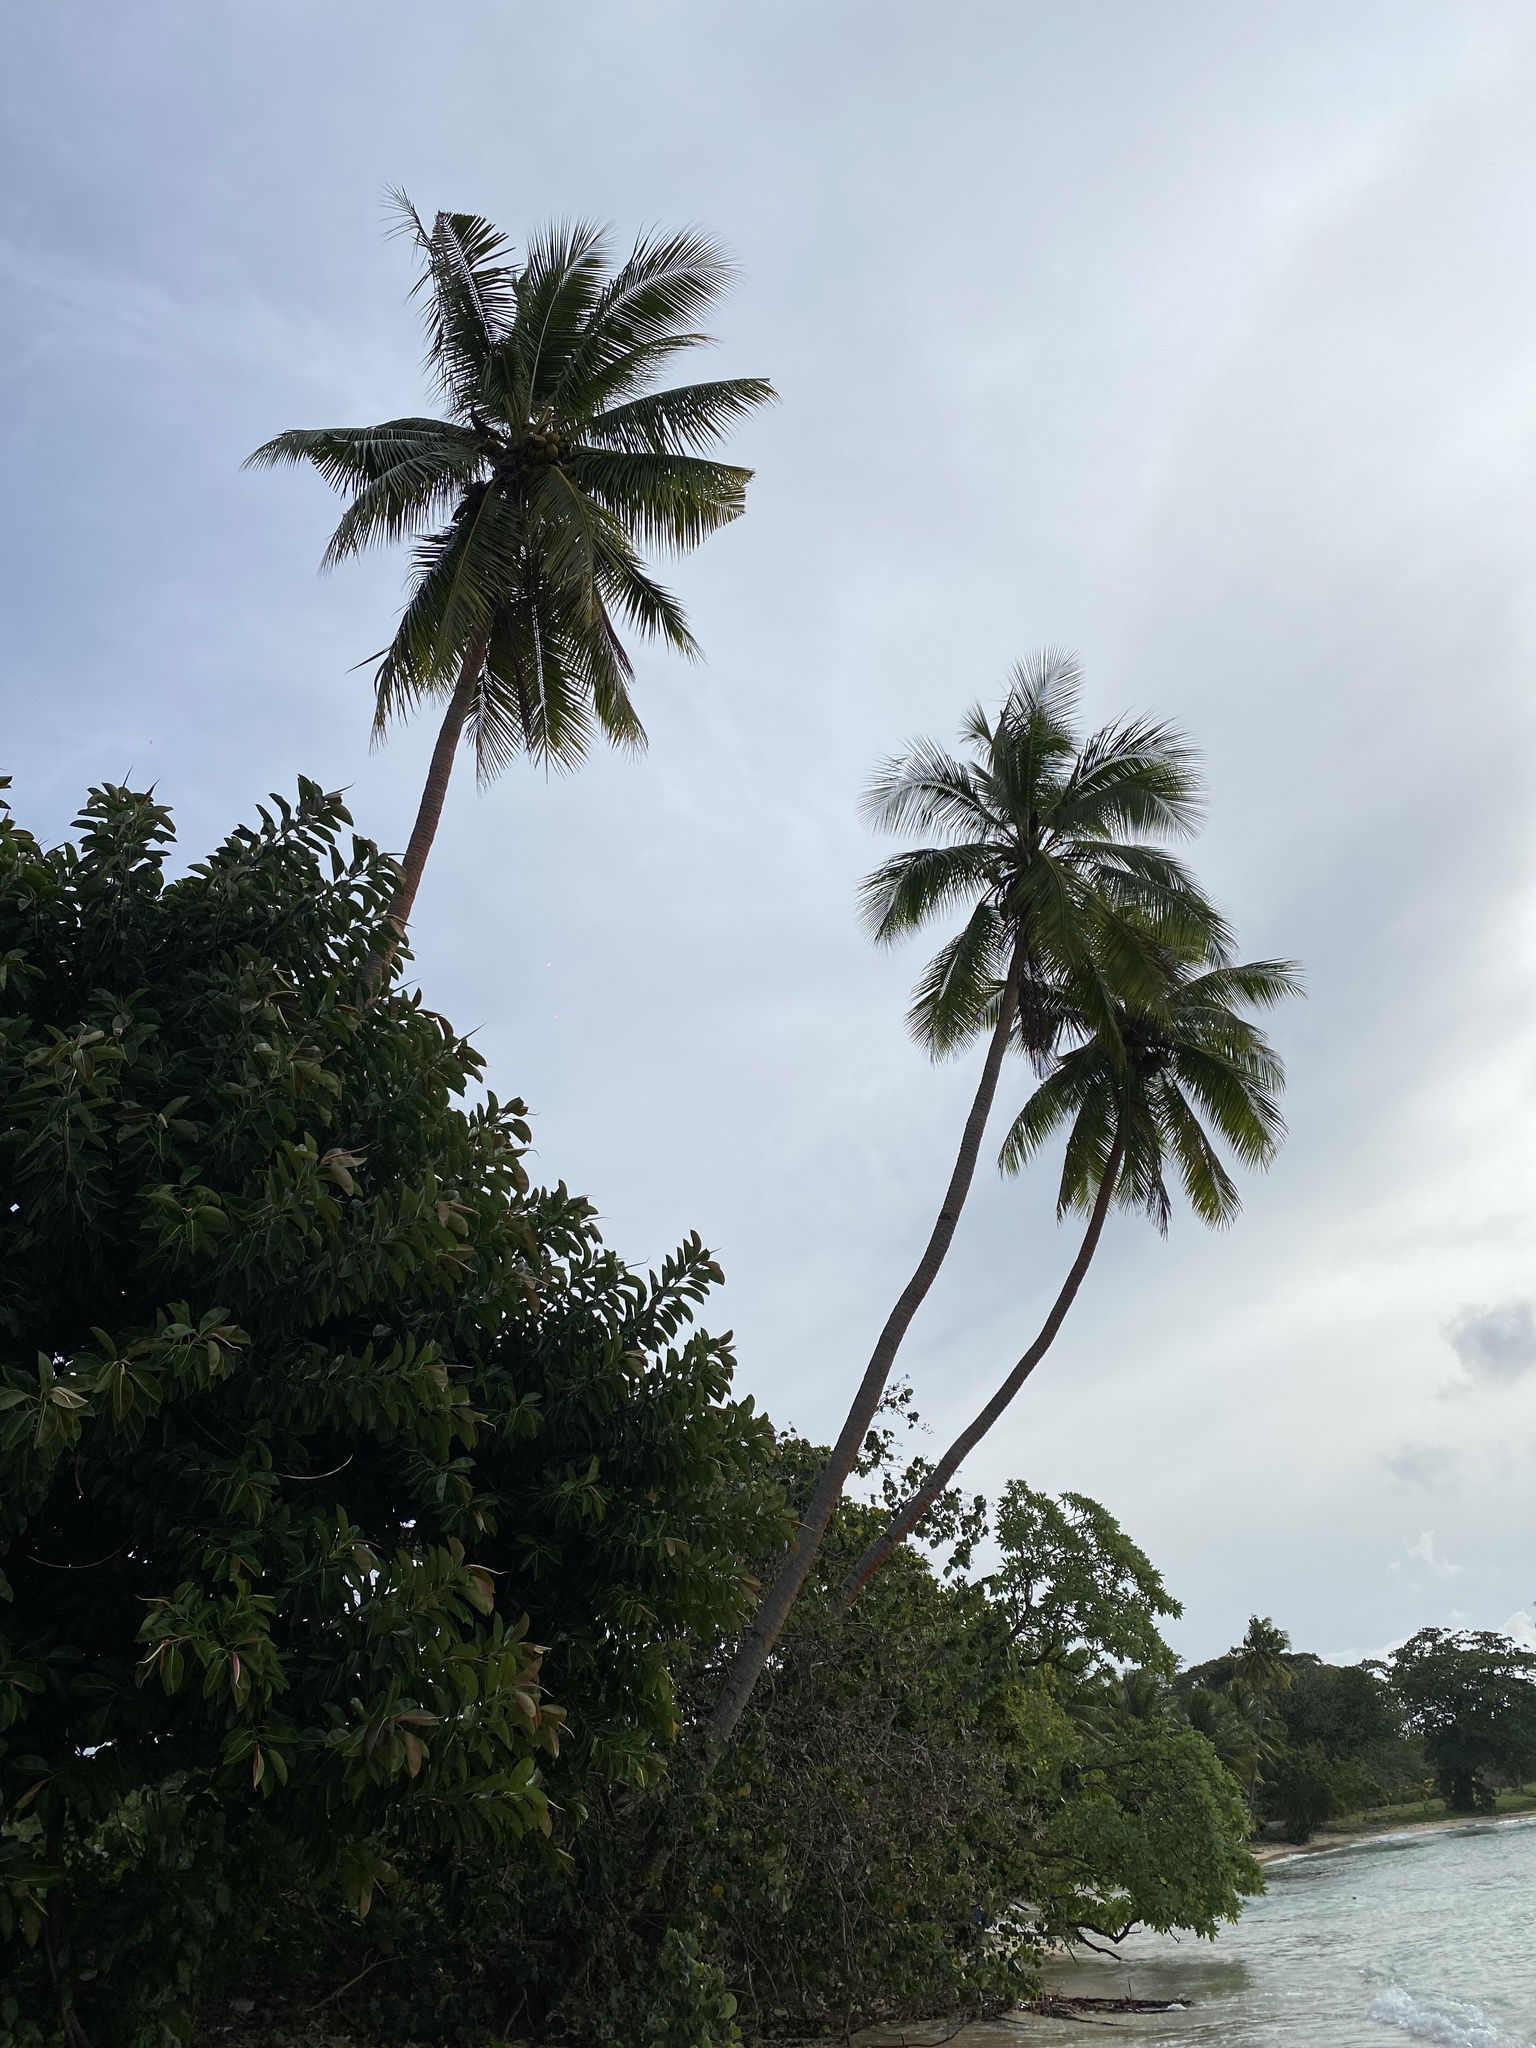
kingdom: Plantae
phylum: Tracheophyta
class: Liliopsida
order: Arecales
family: Arecaceae
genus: Cocos
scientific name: Cocos nucifera
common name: Coconut palm
